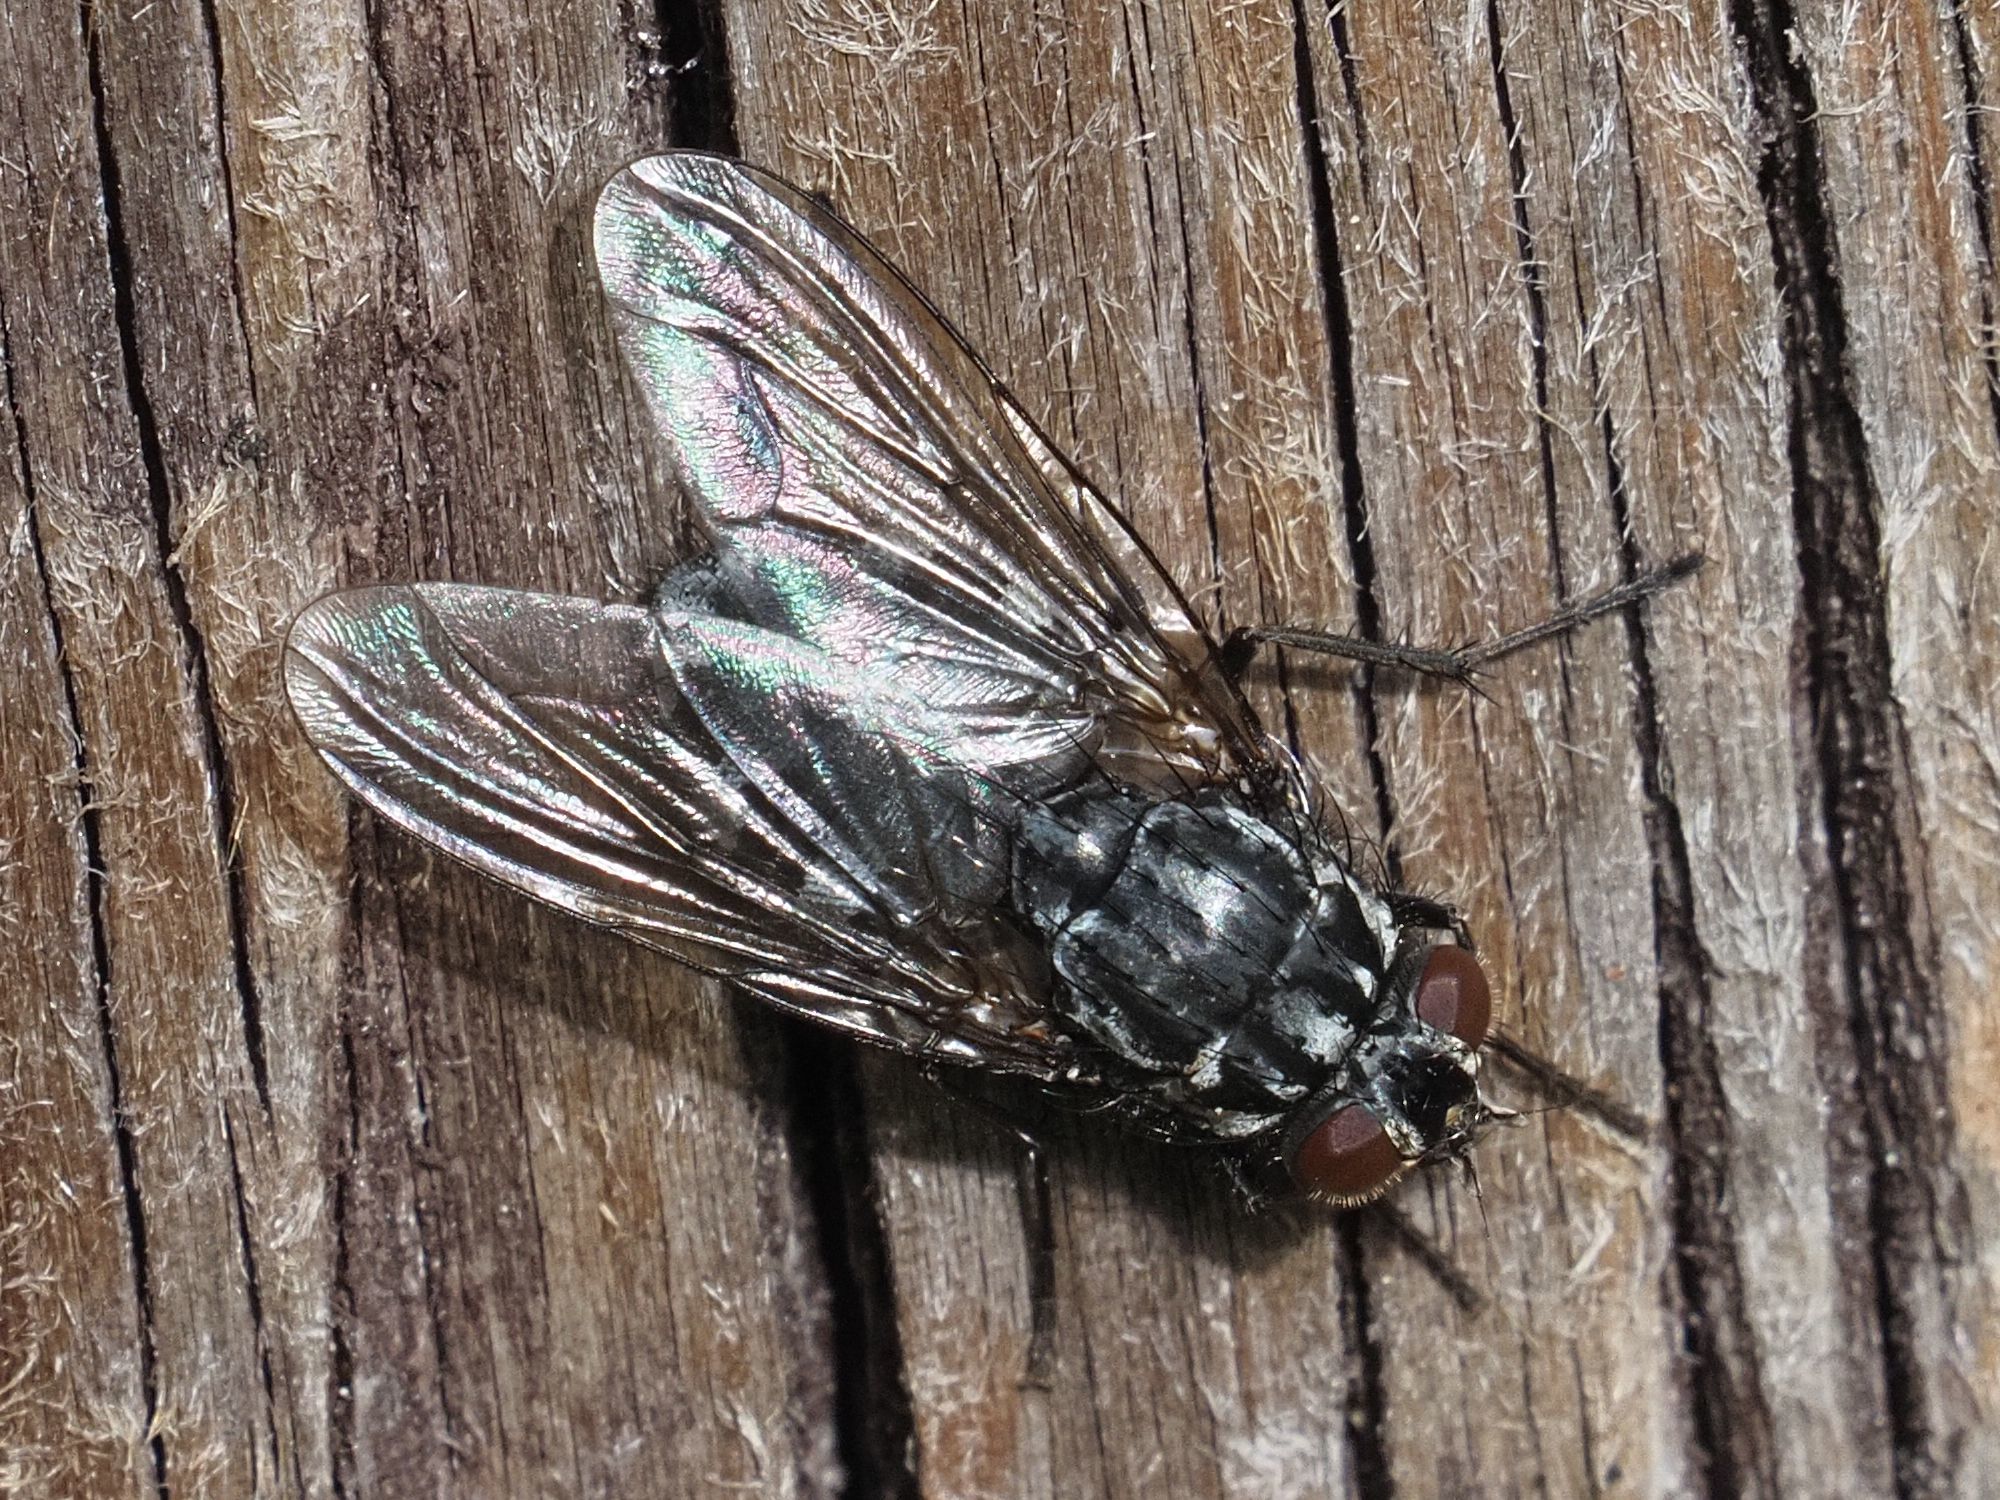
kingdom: Animalia
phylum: Arthropoda
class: Insecta
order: Diptera
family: Muscidae
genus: Polietes
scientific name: Polietes lardaria
